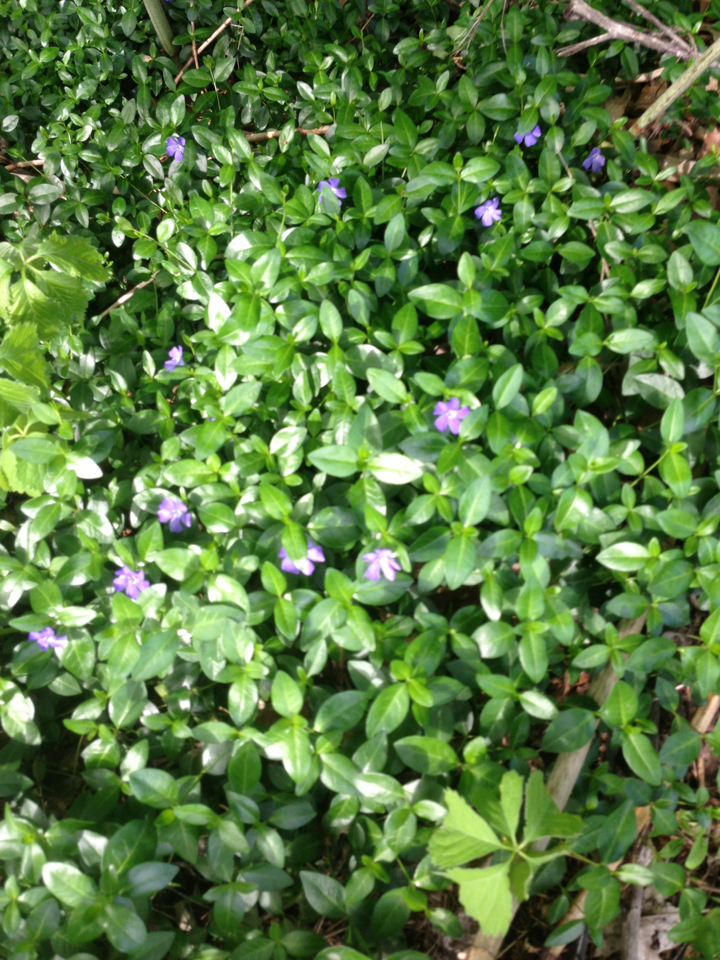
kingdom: Plantae
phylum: Tracheophyta
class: Magnoliopsida
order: Gentianales
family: Apocynaceae
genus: Vinca
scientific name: Vinca minor
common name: Lesser periwinkle
